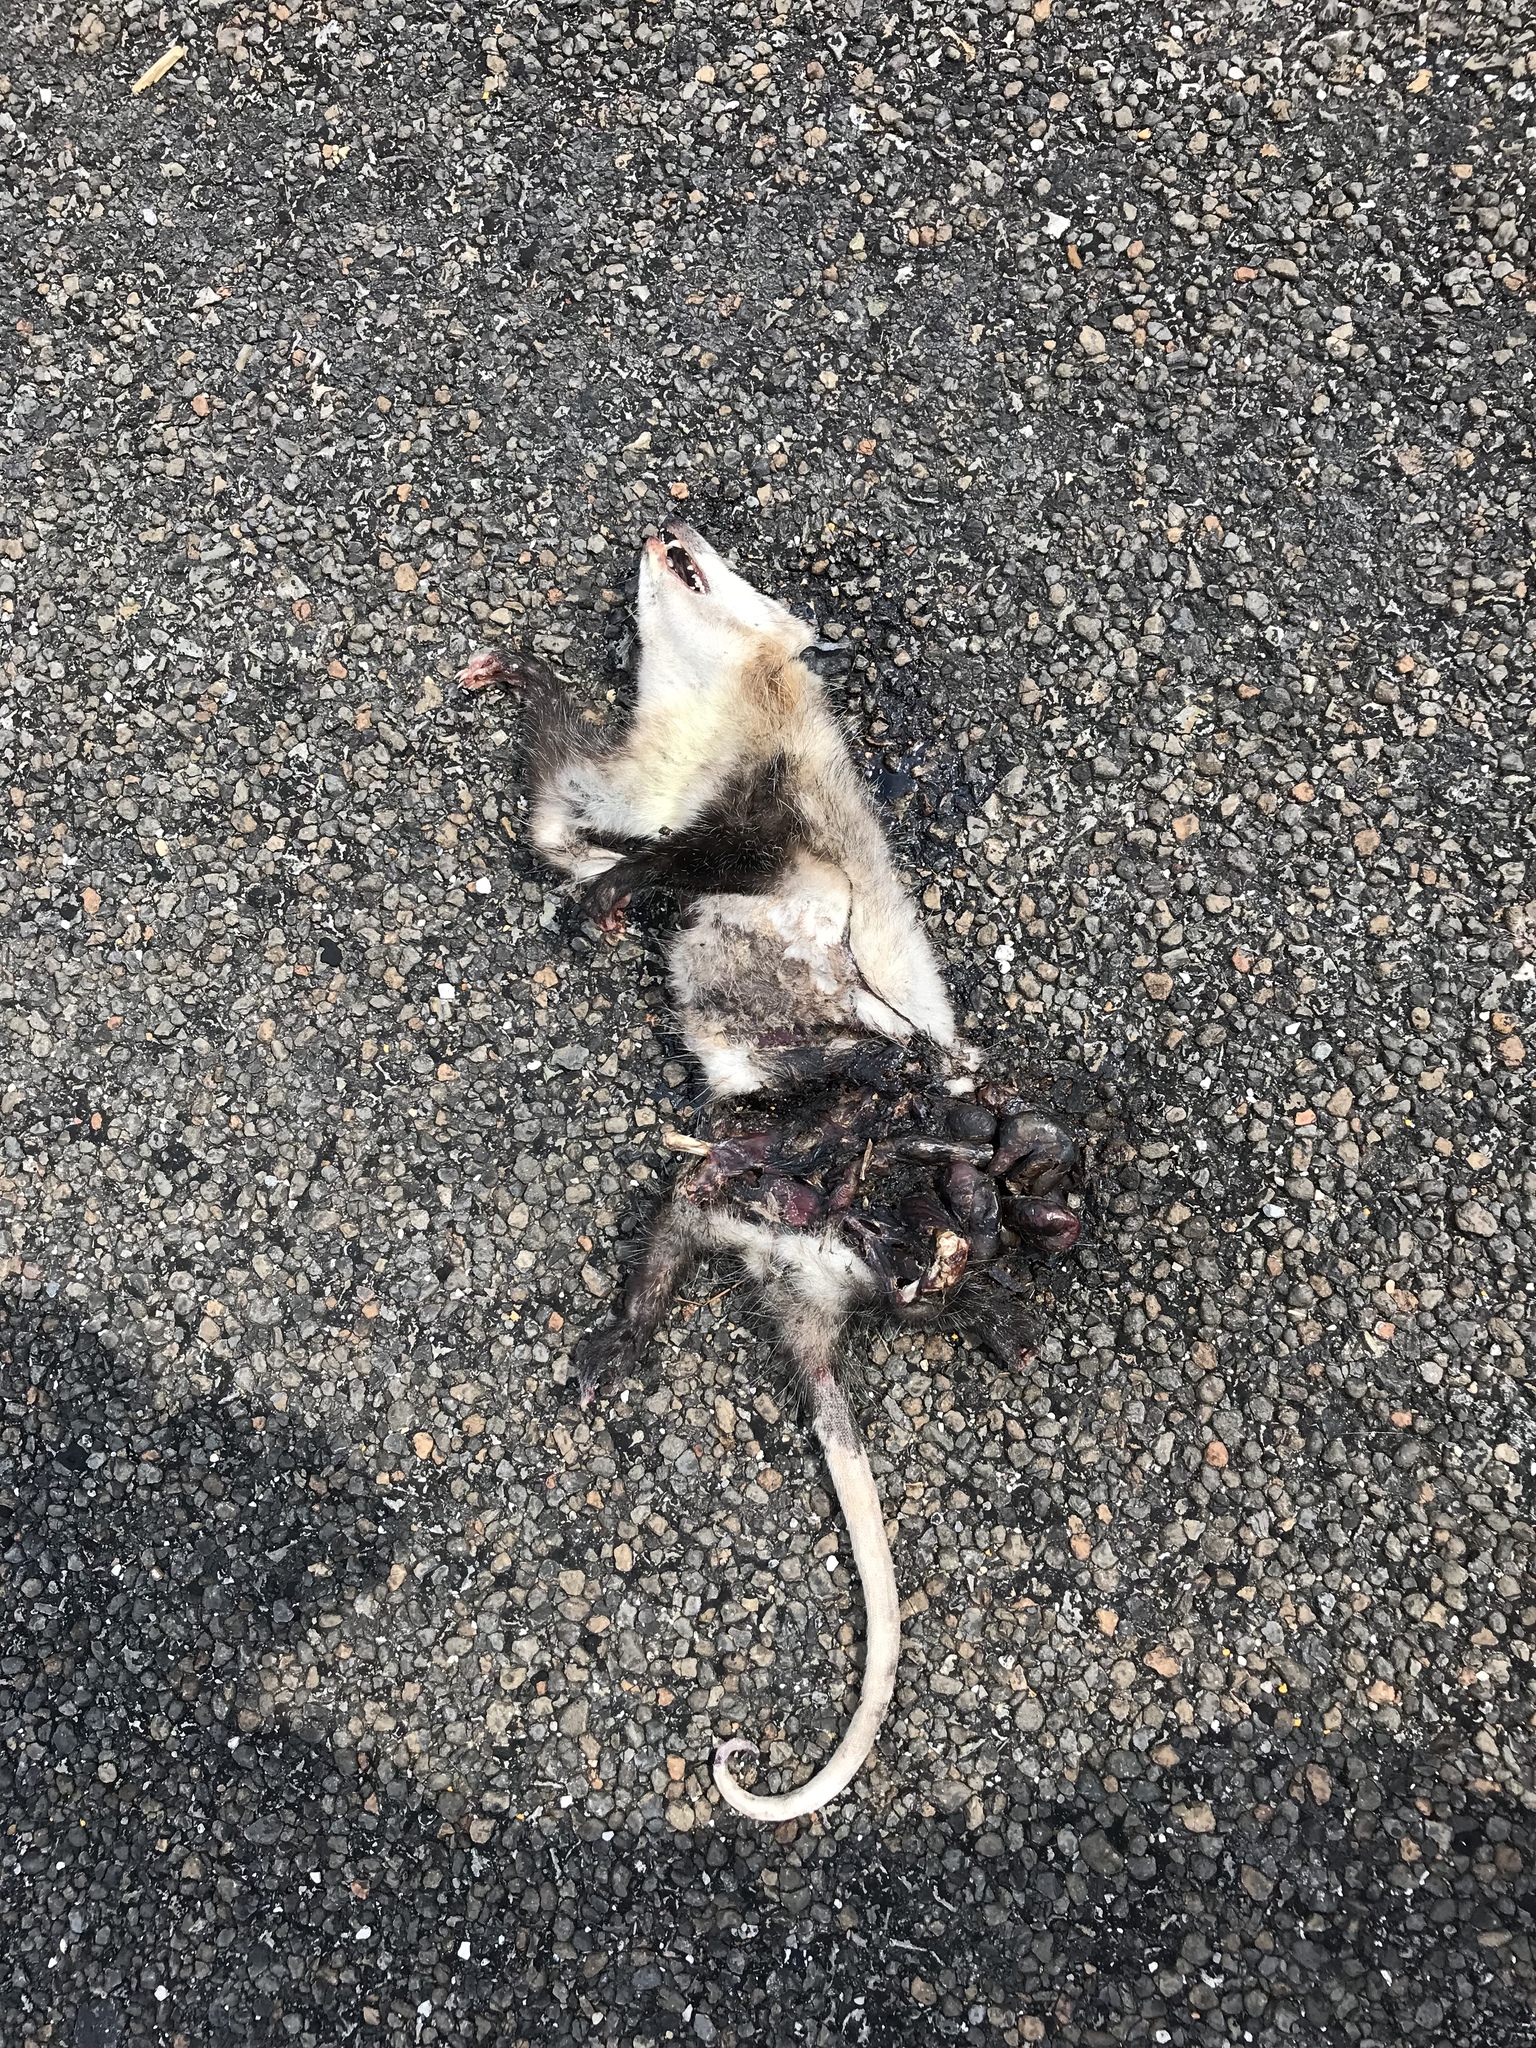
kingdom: Animalia
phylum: Chordata
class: Mammalia
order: Didelphimorphia
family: Didelphidae
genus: Didelphis
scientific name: Didelphis virginiana
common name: Virginia opossum
